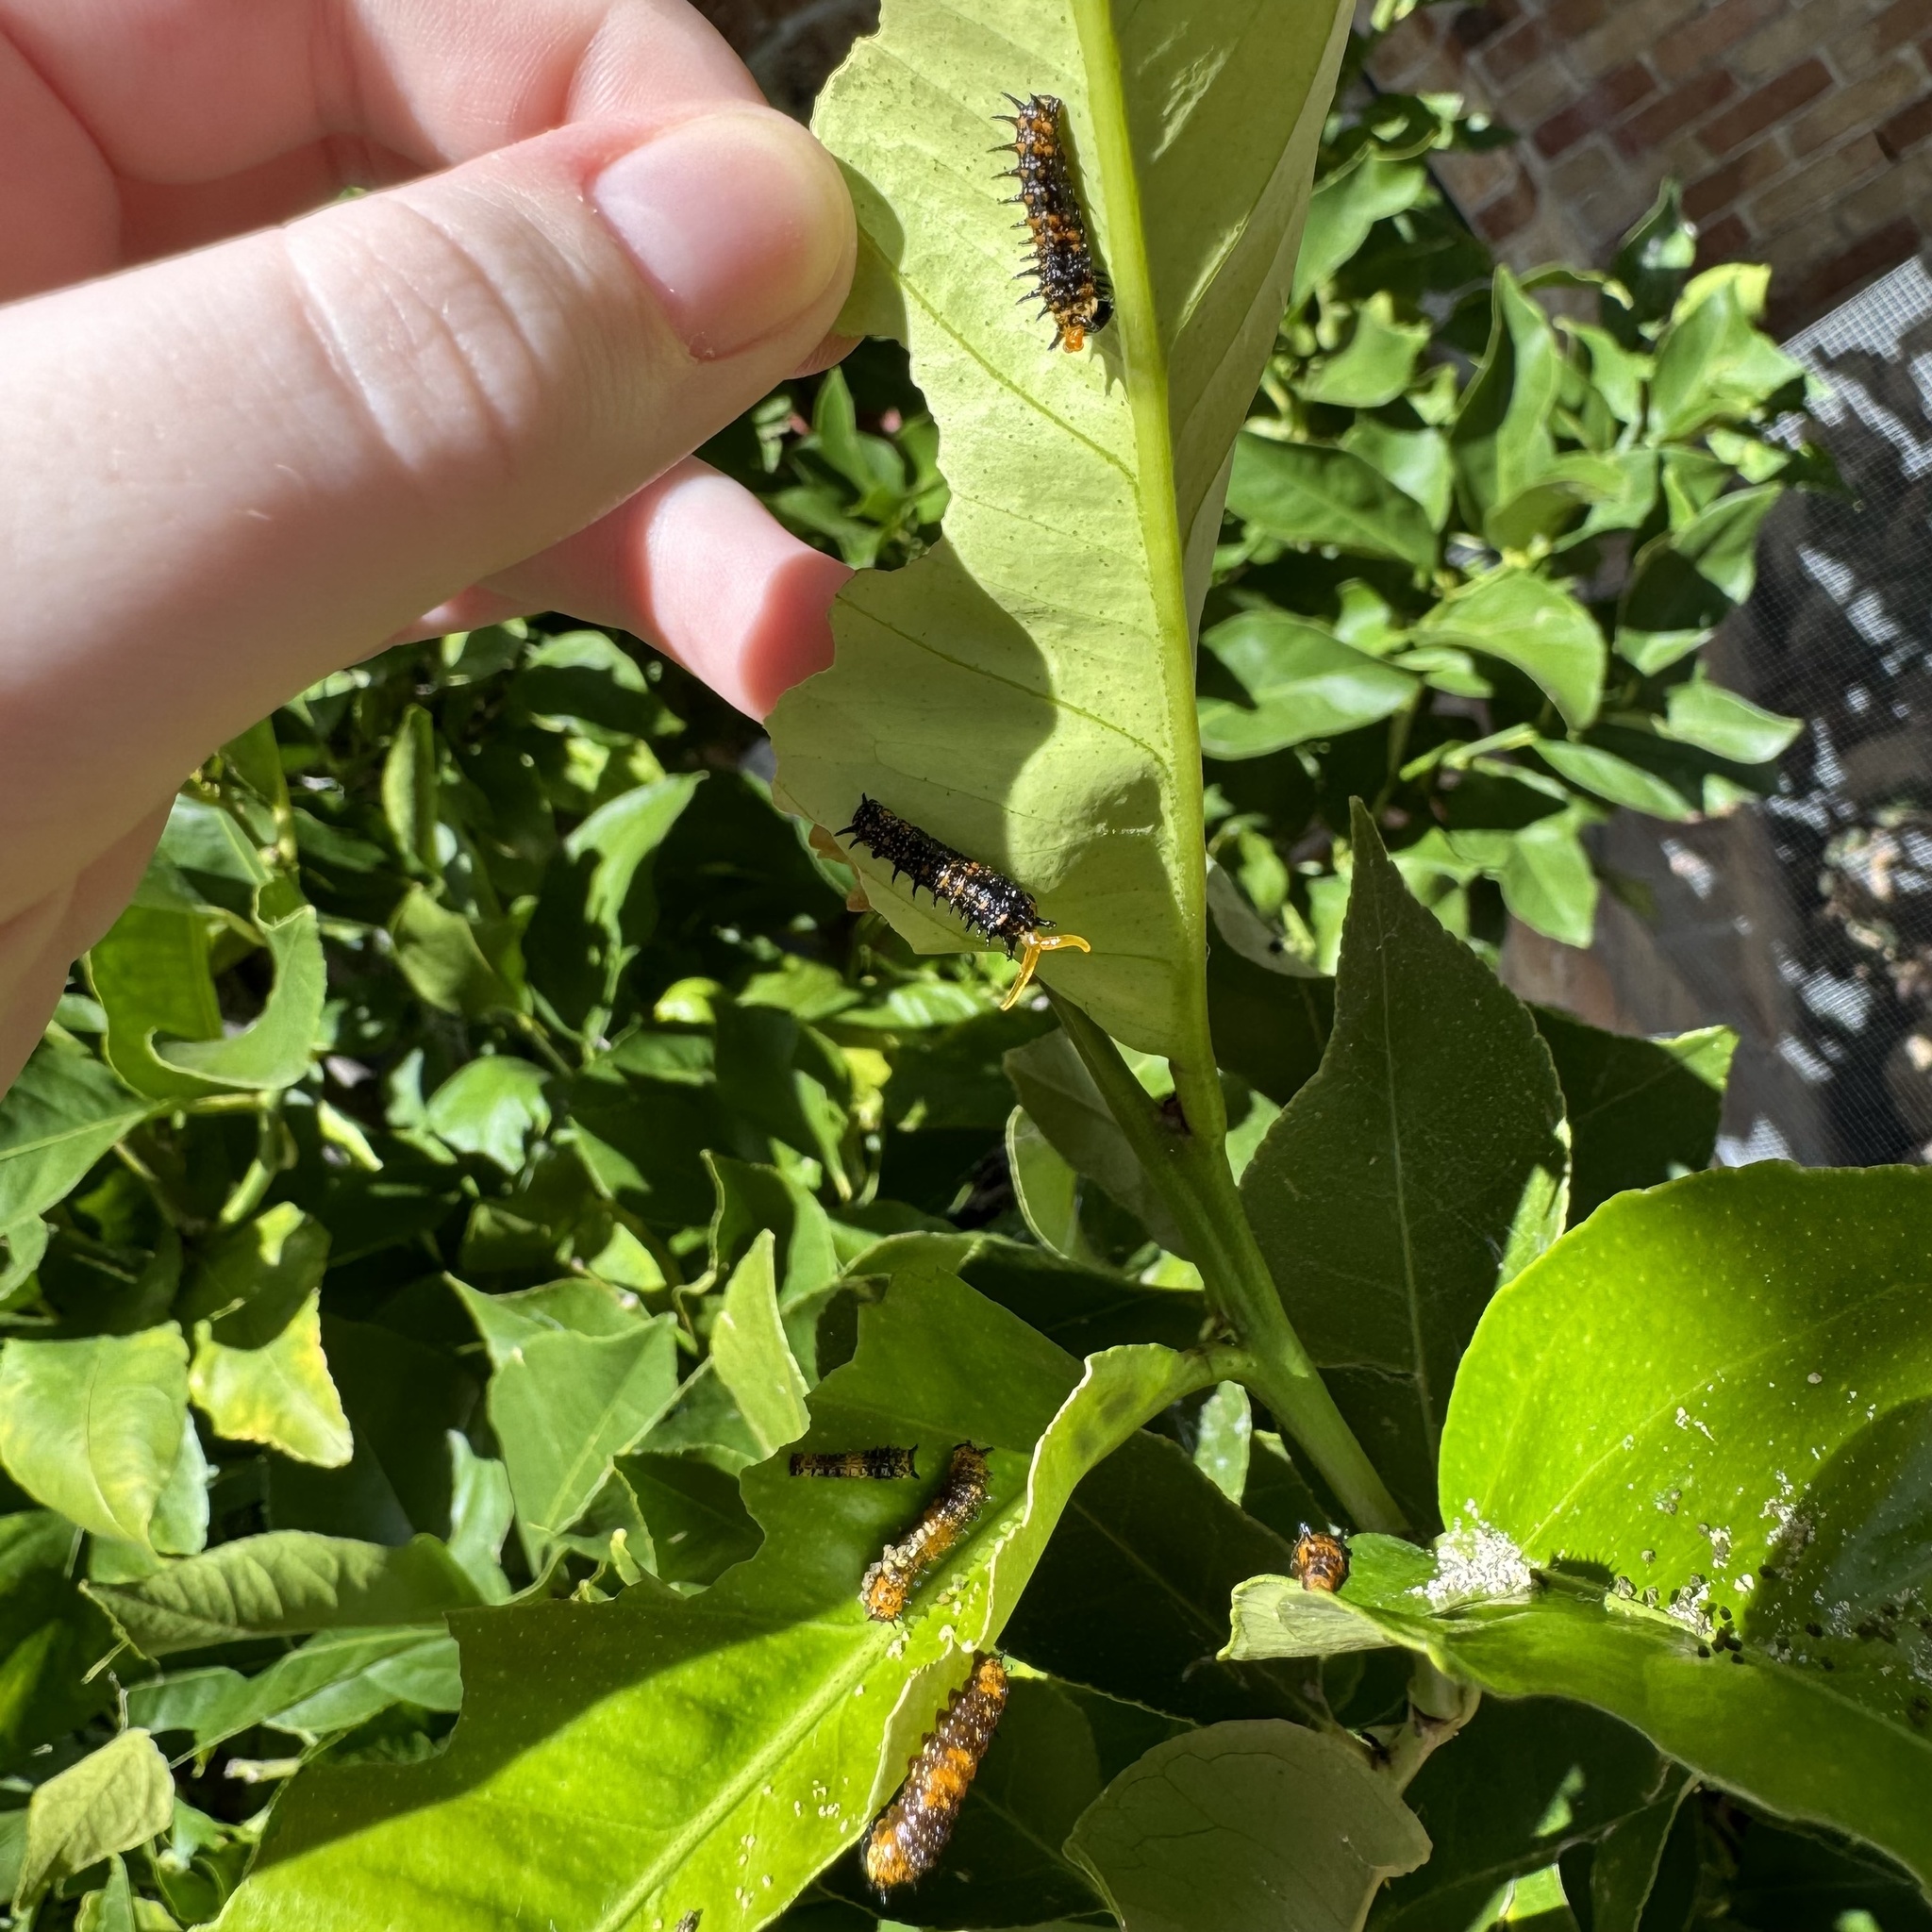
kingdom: Animalia
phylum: Arthropoda
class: Insecta
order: Lepidoptera
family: Papilionidae
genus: Papilio
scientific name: Papilio anactus
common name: Dingy swallowtail
